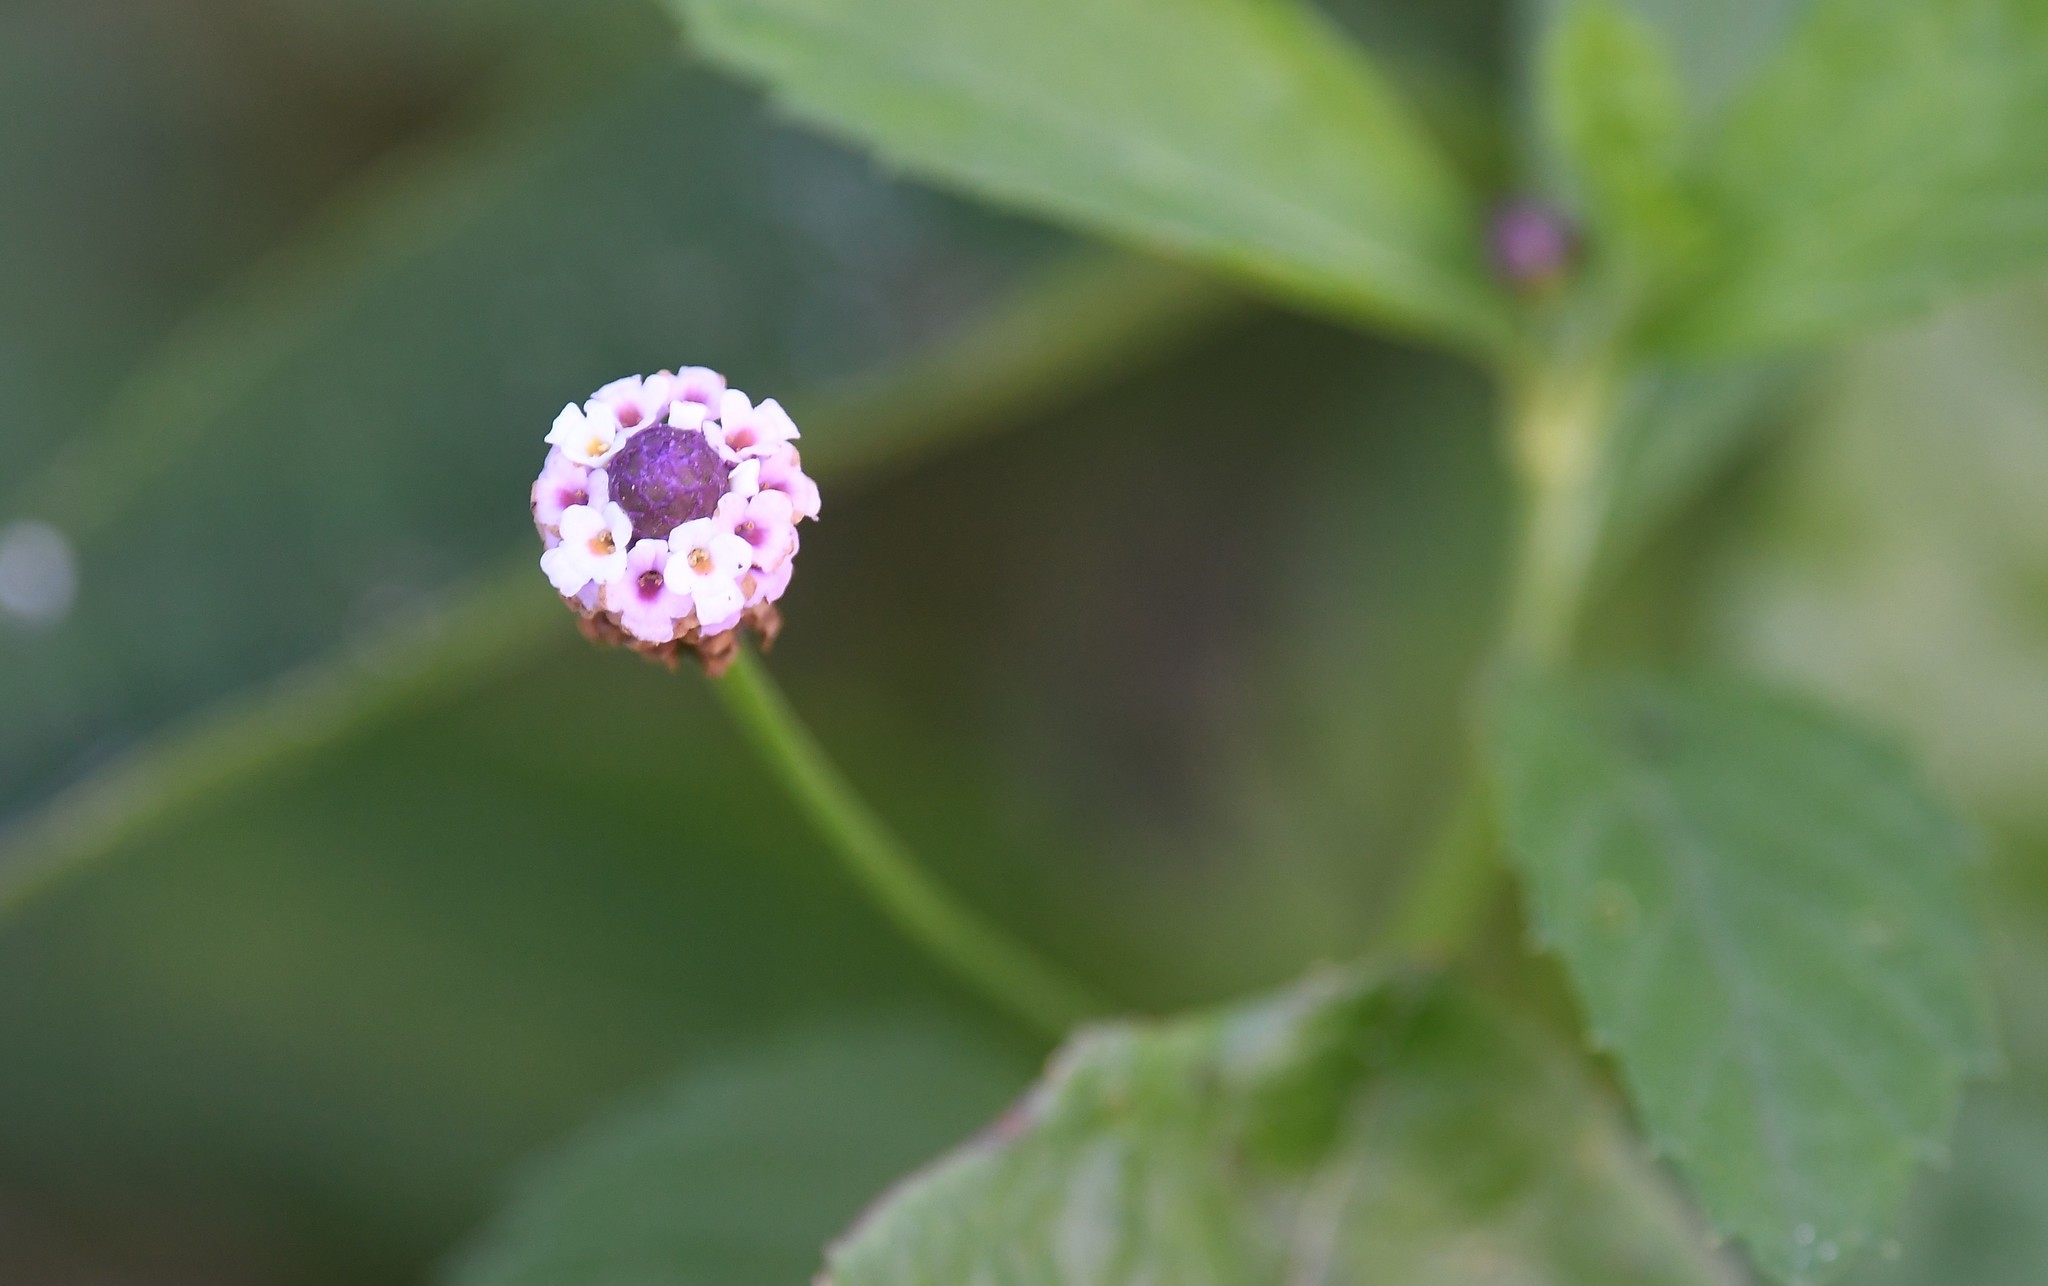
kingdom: Plantae
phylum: Tracheophyta
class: Magnoliopsida
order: Lamiales
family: Verbenaceae
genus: Phyla
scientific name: Phyla lanceolata
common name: Northern fogfruit
